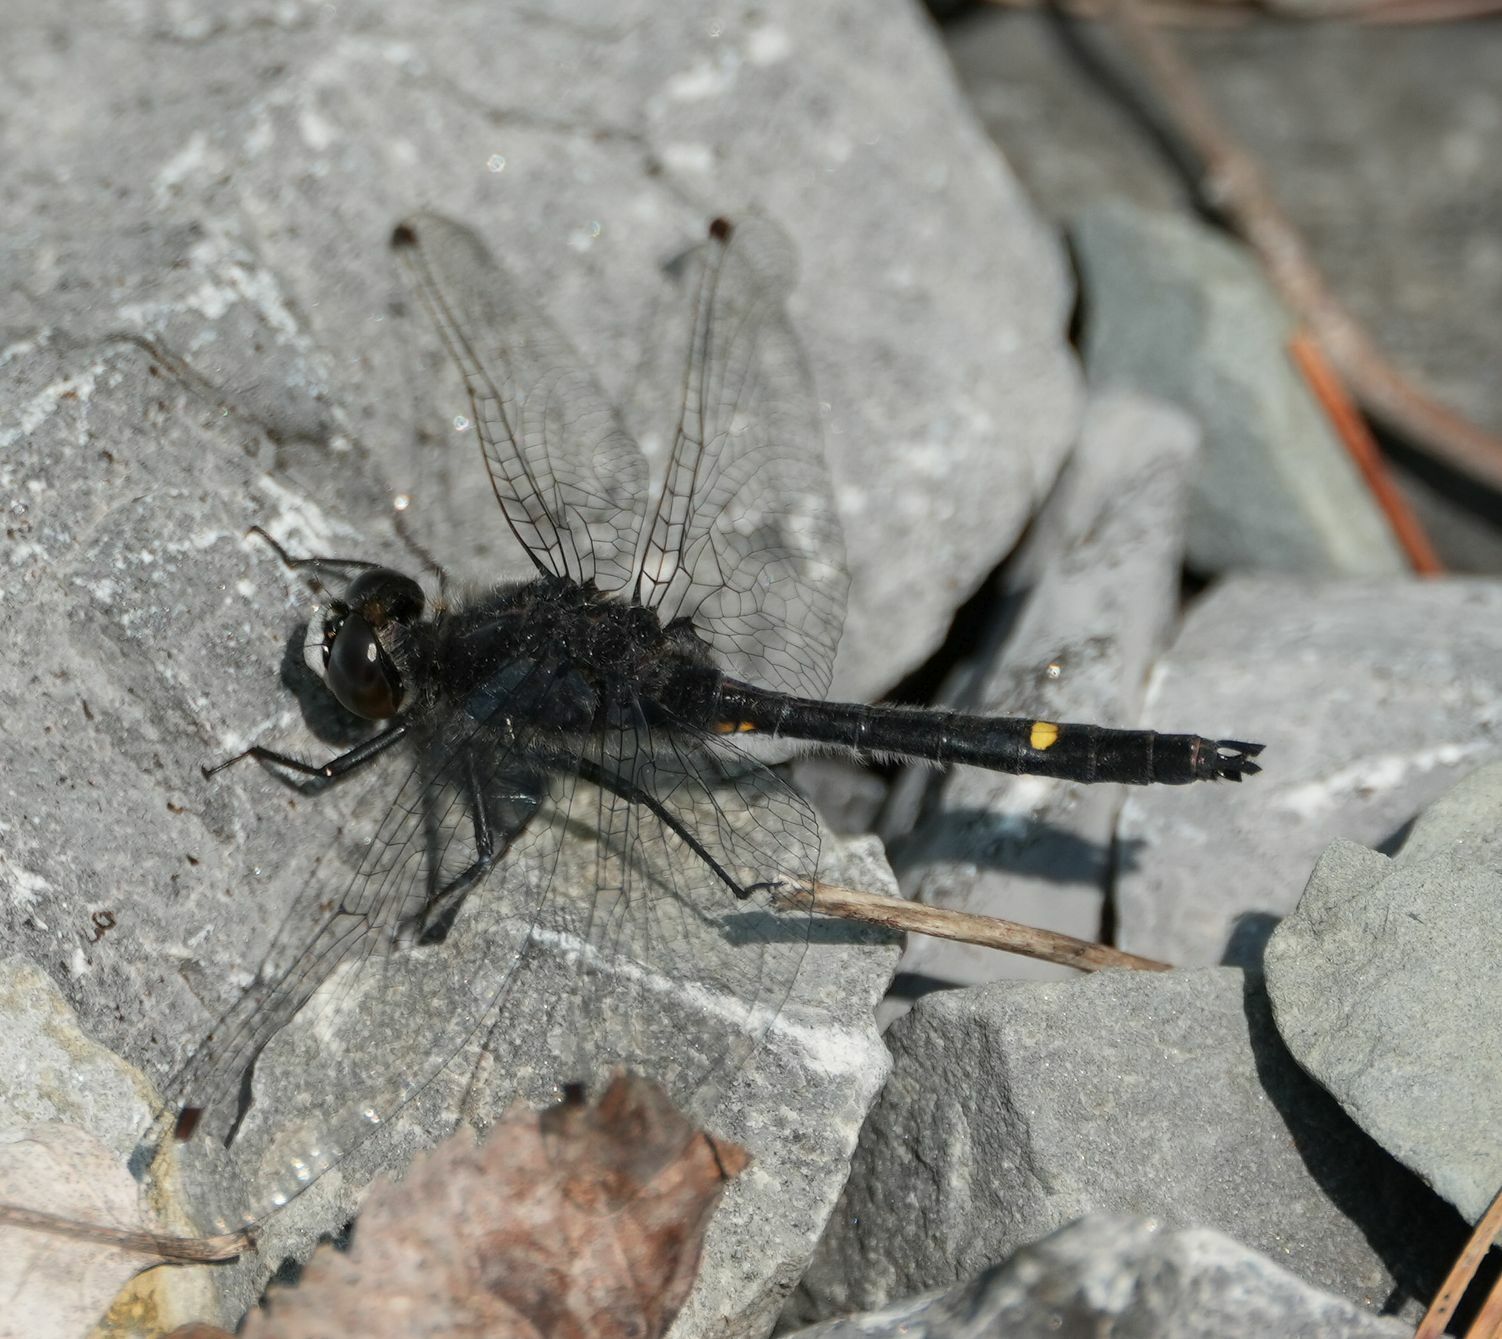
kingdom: Animalia
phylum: Arthropoda
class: Insecta
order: Odonata
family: Libellulidae
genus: Leucorrhinia
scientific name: Leucorrhinia intacta
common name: Dot-tailed whiteface
